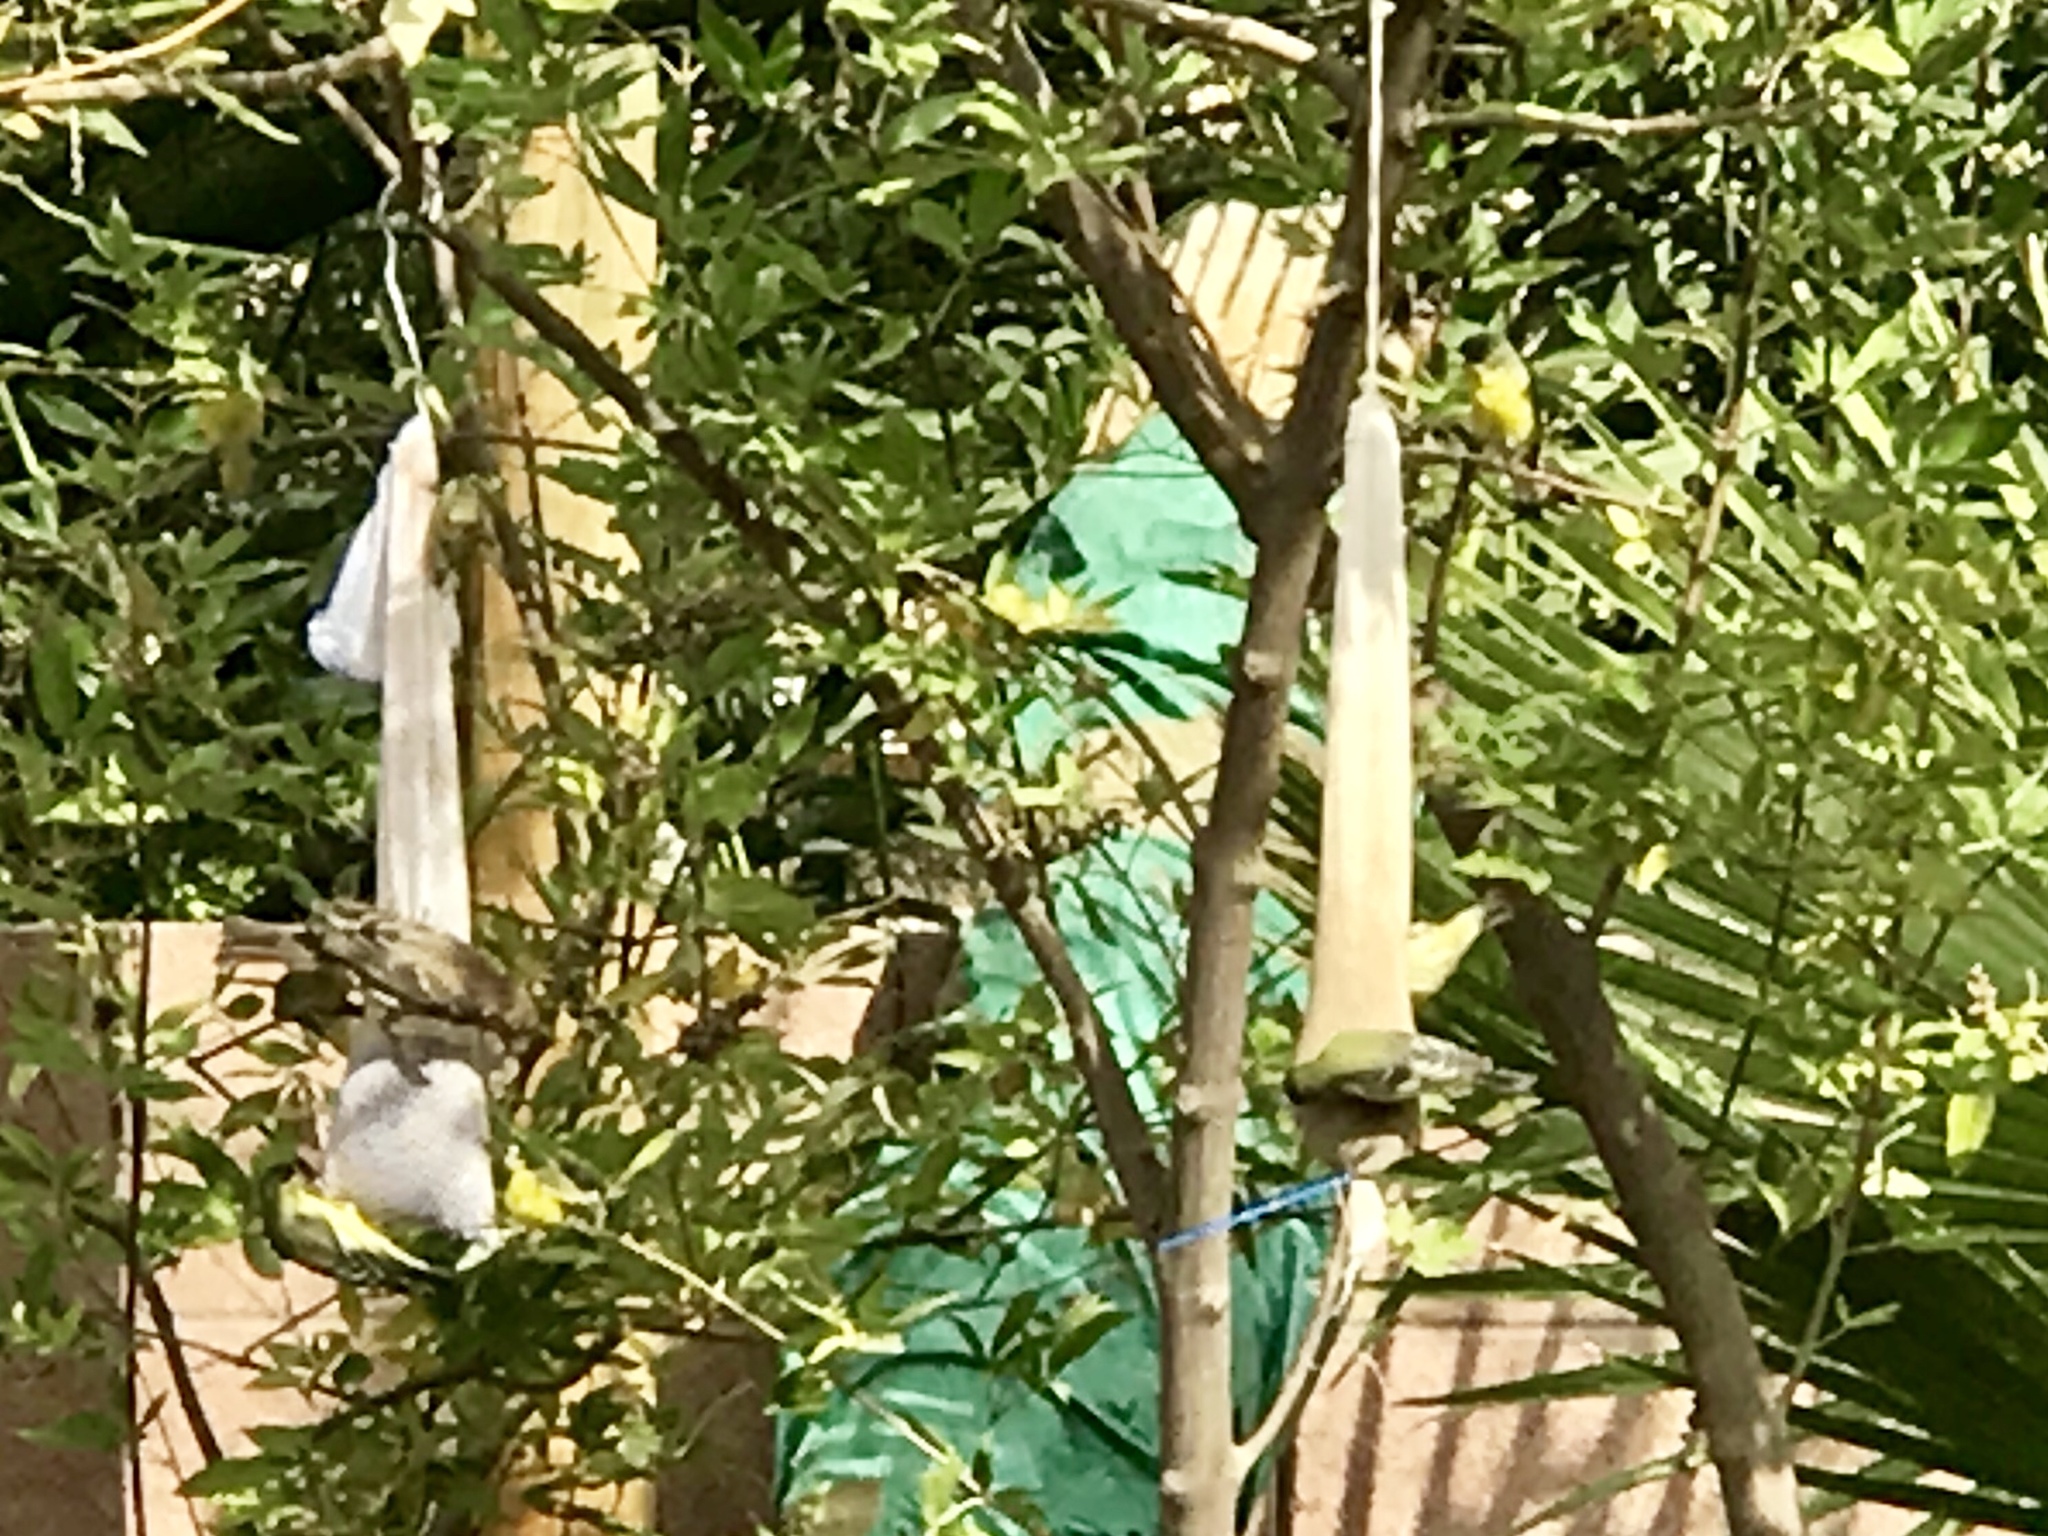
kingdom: Animalia
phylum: Chordata
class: Aves
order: Passeriformes
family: Fringillidae
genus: Spinus
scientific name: Spinus psaltria
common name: Lesser goldfinch
